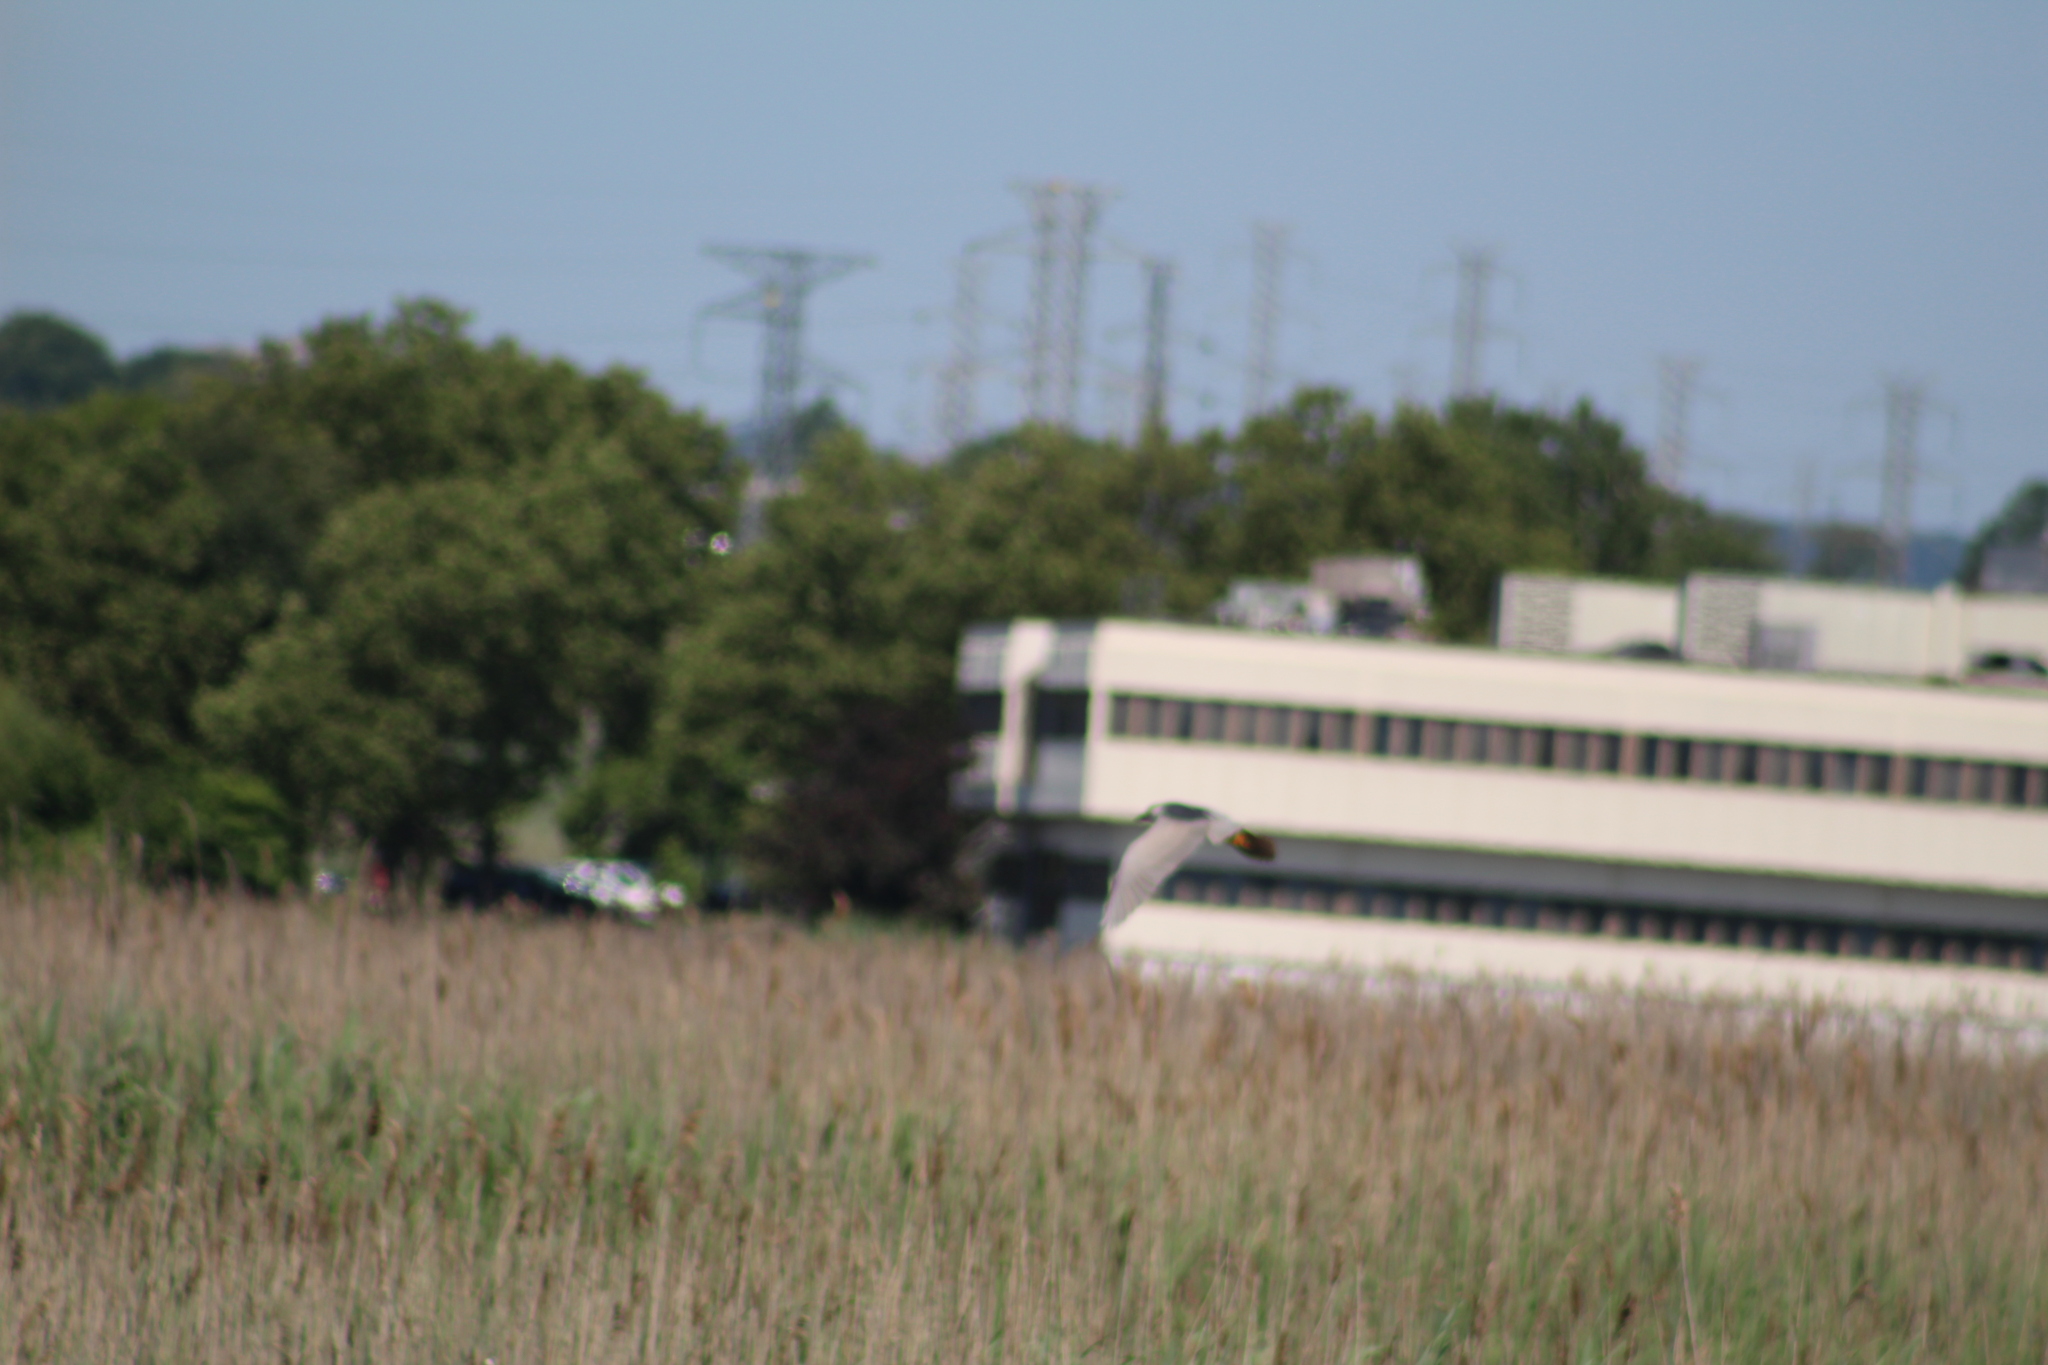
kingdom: Animalia
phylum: Chordata
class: Aves
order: Pelecaniformes
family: Ardeidae
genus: Nycticorax
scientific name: Nycticorax nycticorax
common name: Black-crowned night heron
